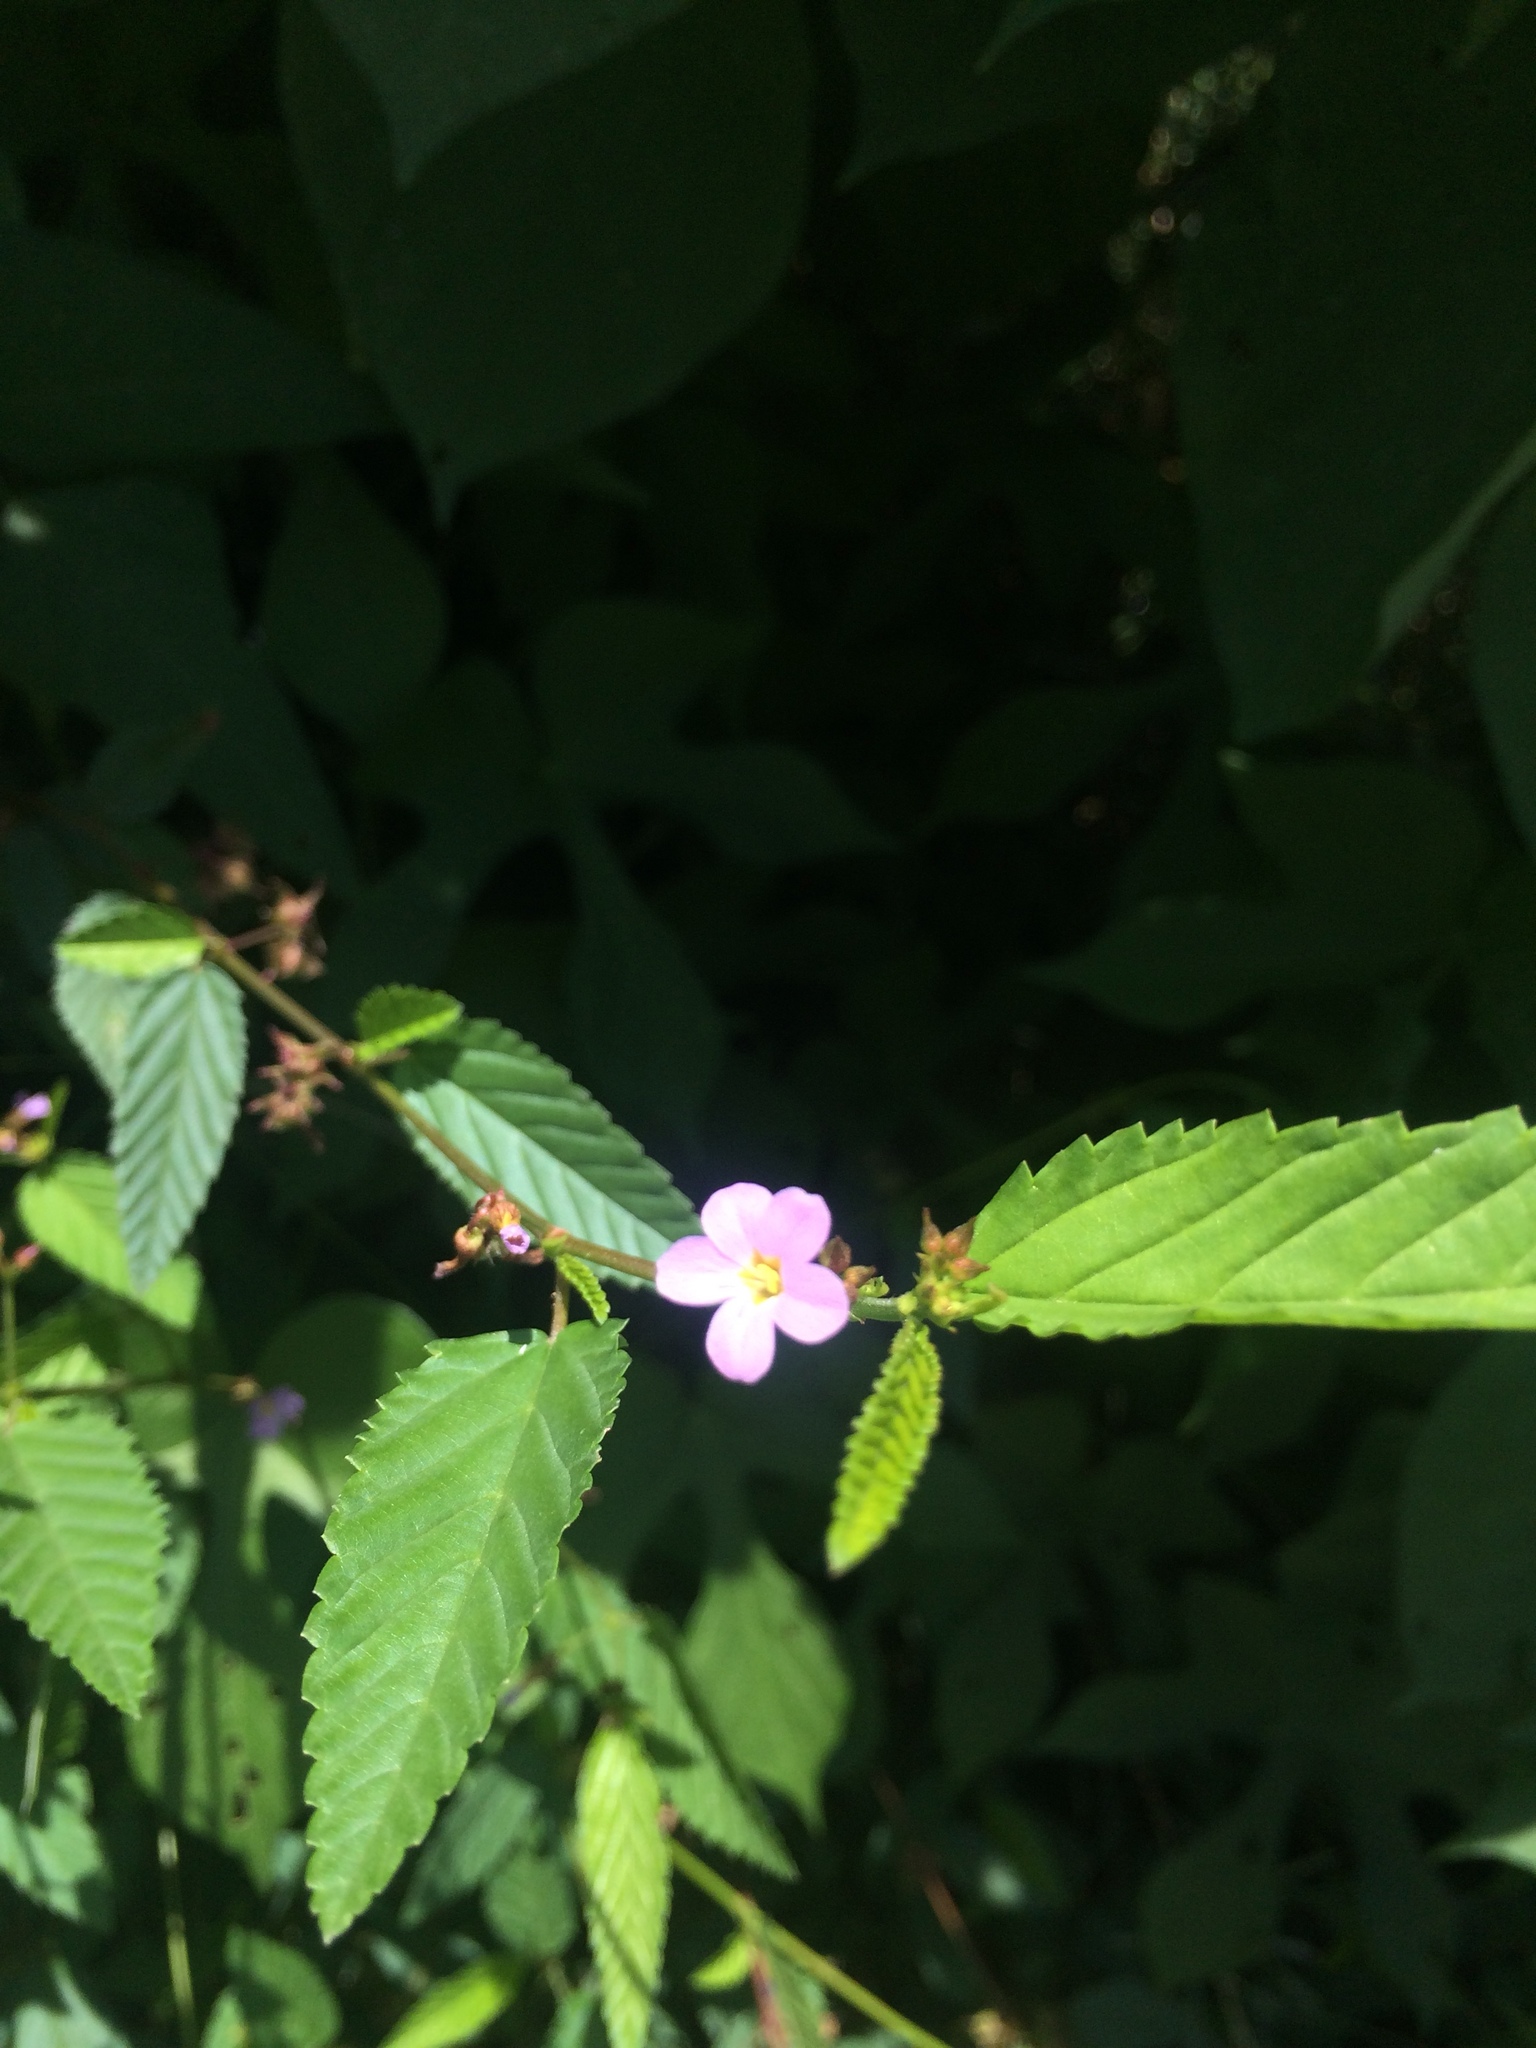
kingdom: Plantae
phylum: Tracheophyta
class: Magnoliopsida
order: Malvales
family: Malvaceae
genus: Melochia
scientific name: Melochia pyramidata
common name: Pyramidflower
